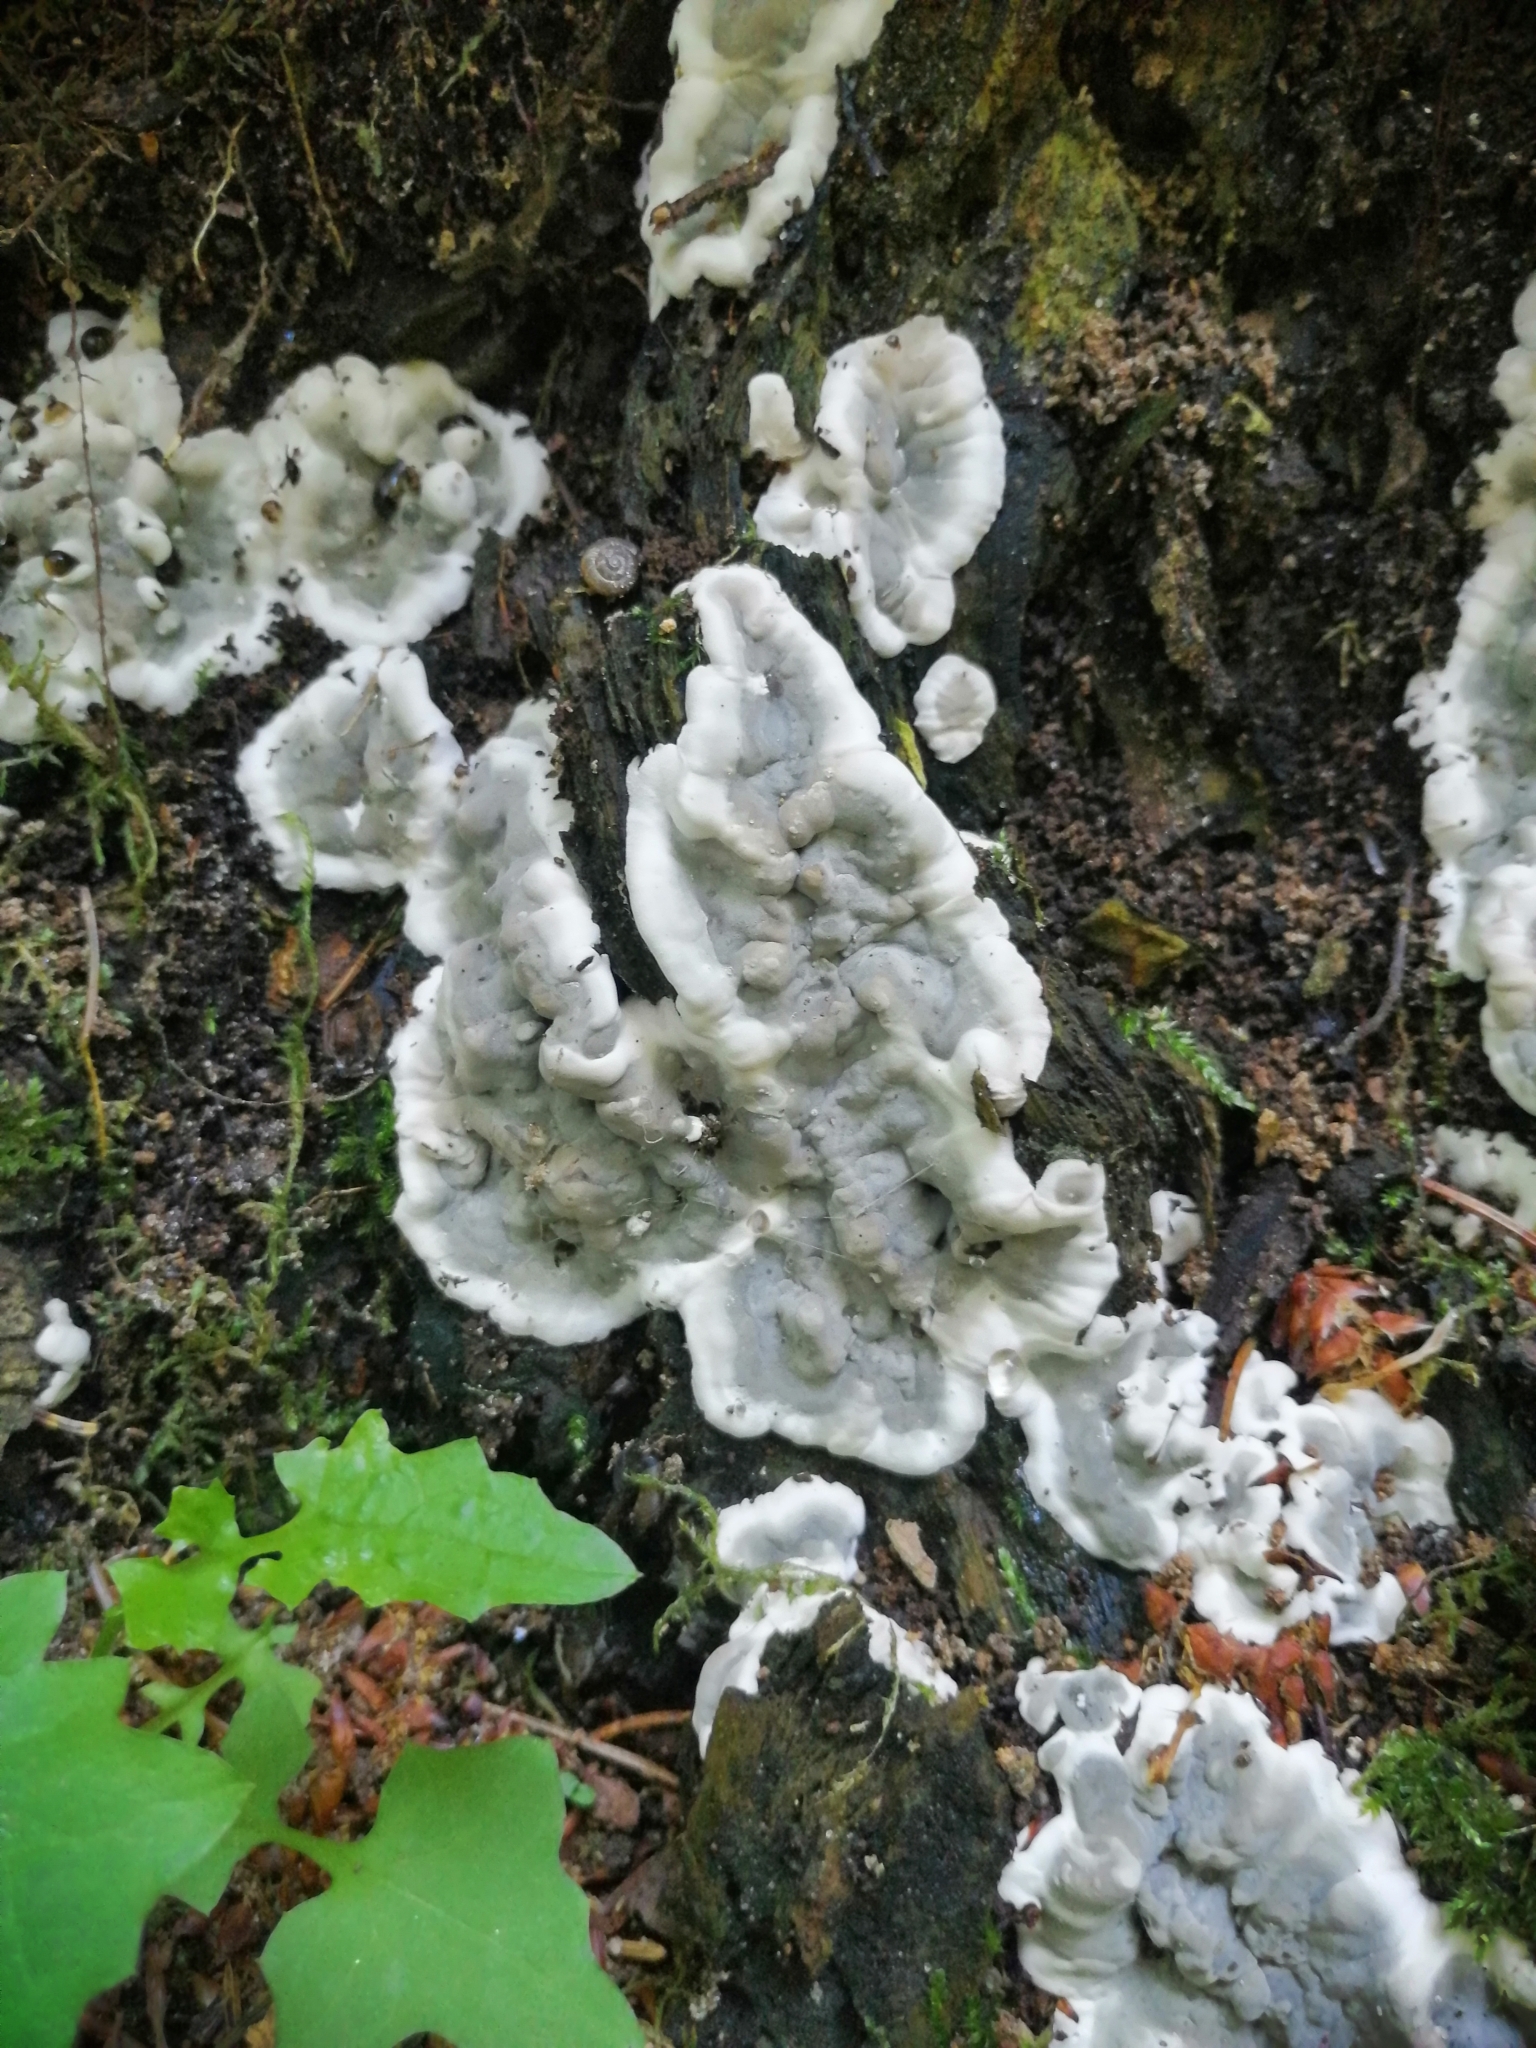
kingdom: Fungi
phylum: Ascomycota
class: Sordariomycetes
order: Xylariales
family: Xylariaceae
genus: Kretzschmaria
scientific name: Kretzschmaria deusta
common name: Brittle cinder
